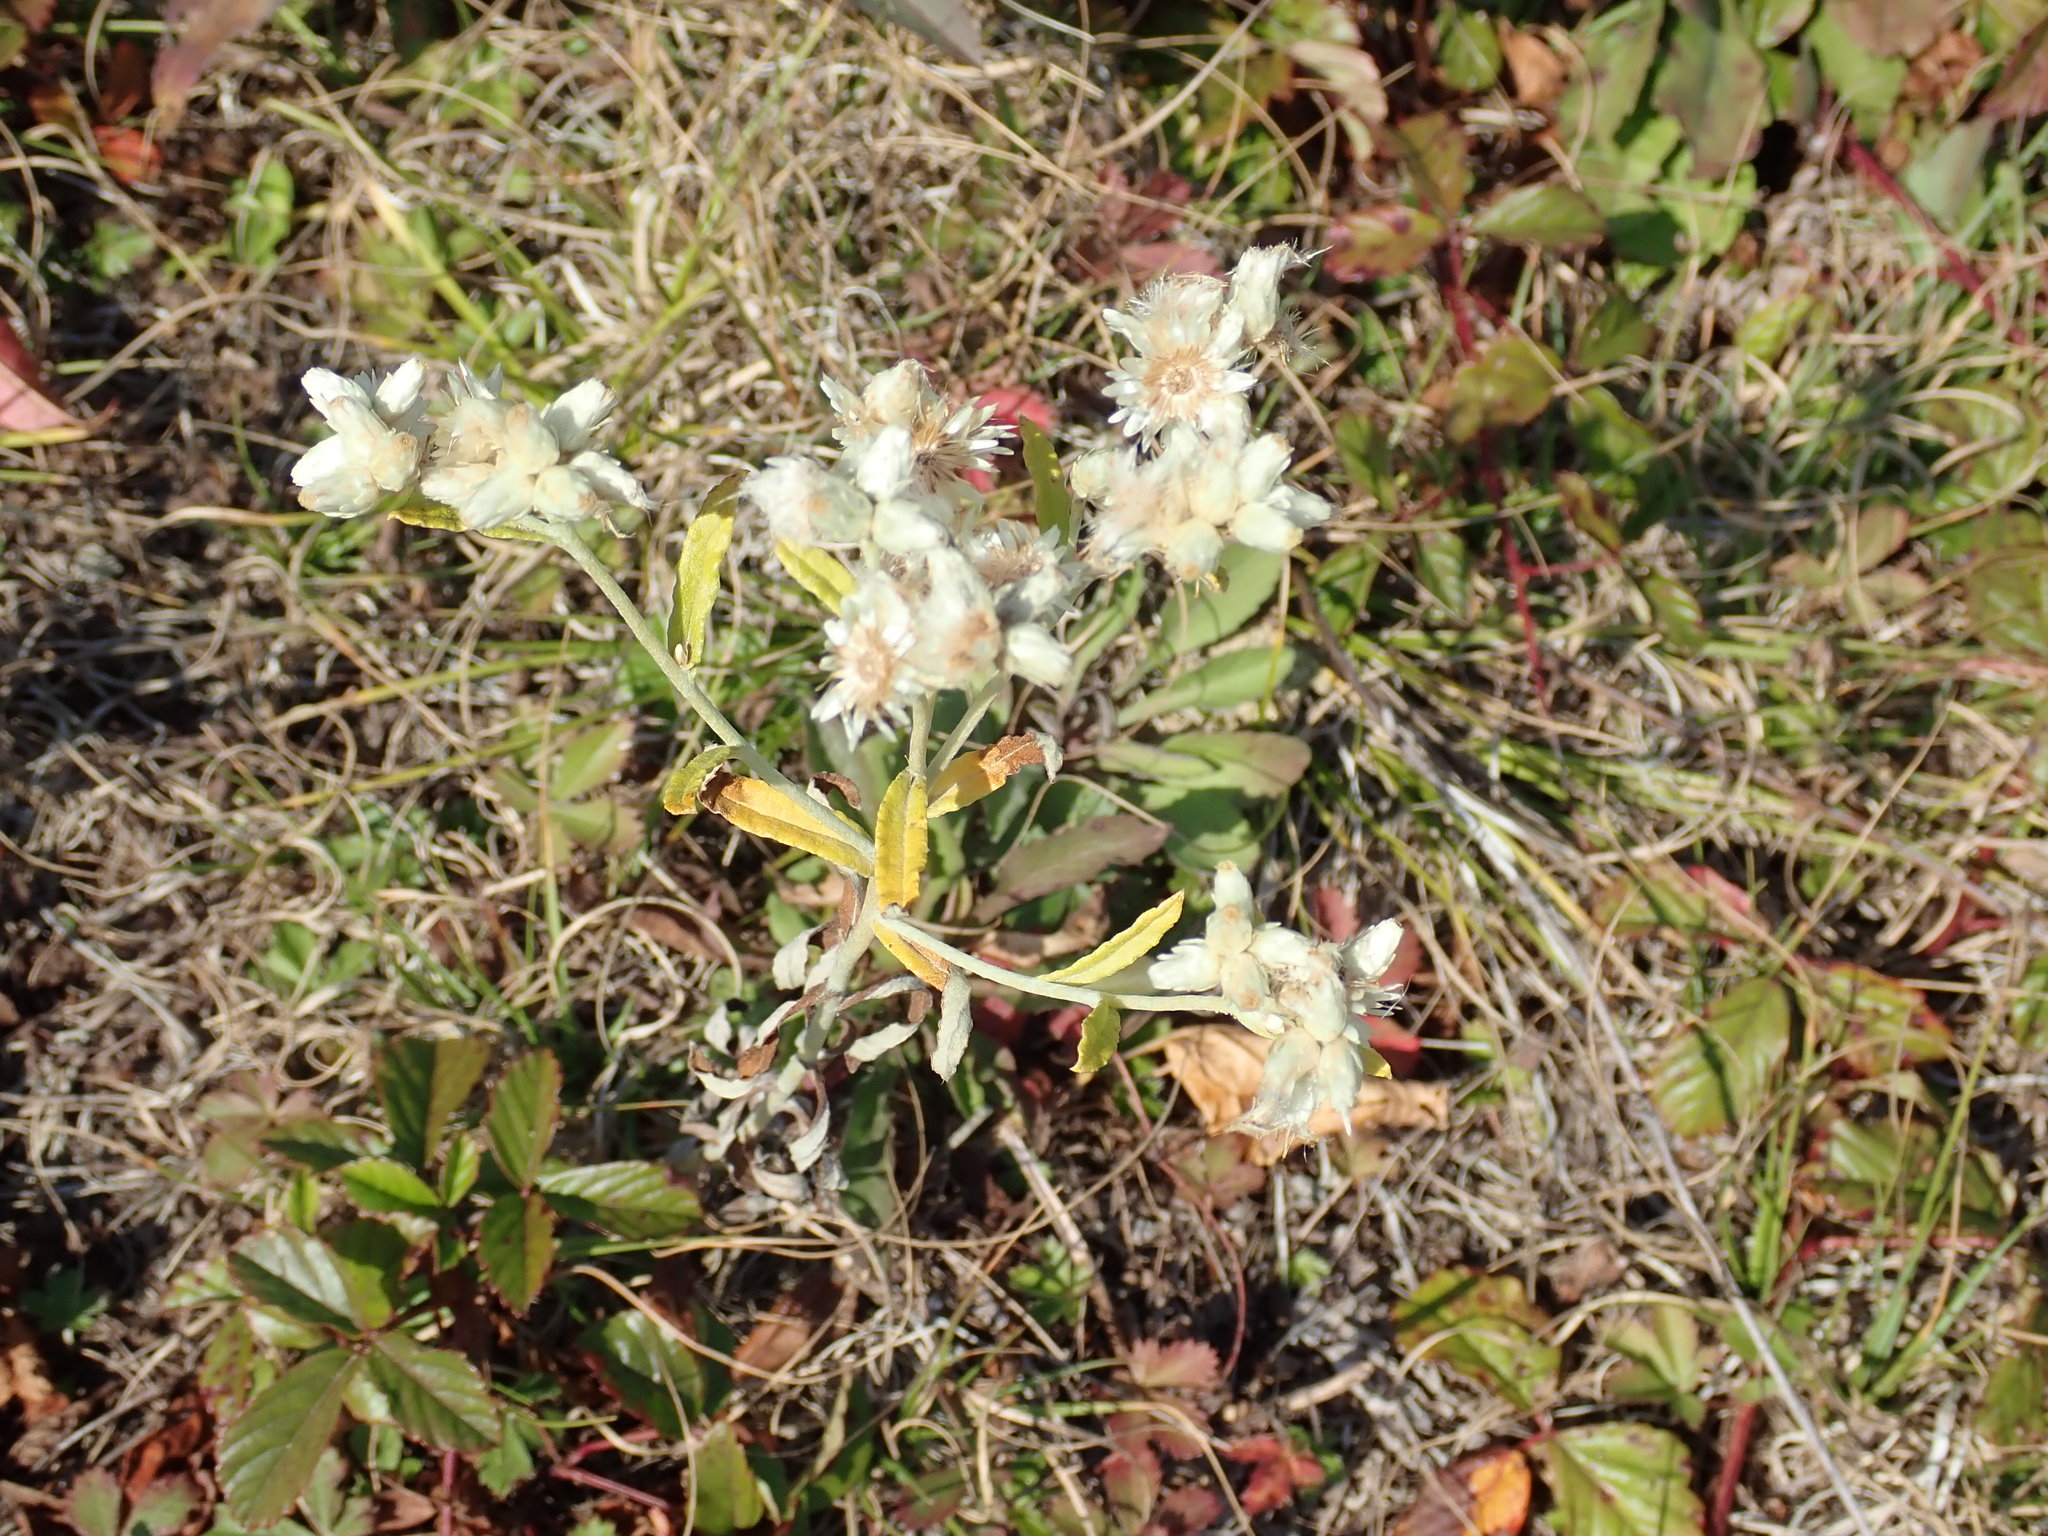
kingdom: Plantae
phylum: Tracheophyta
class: Magnoliopsida
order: Asterales
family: Asteraceae
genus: Pseudognaphalium
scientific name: Pseudognaphalium obtusifolium
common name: Eastern rabbit-tobacco
